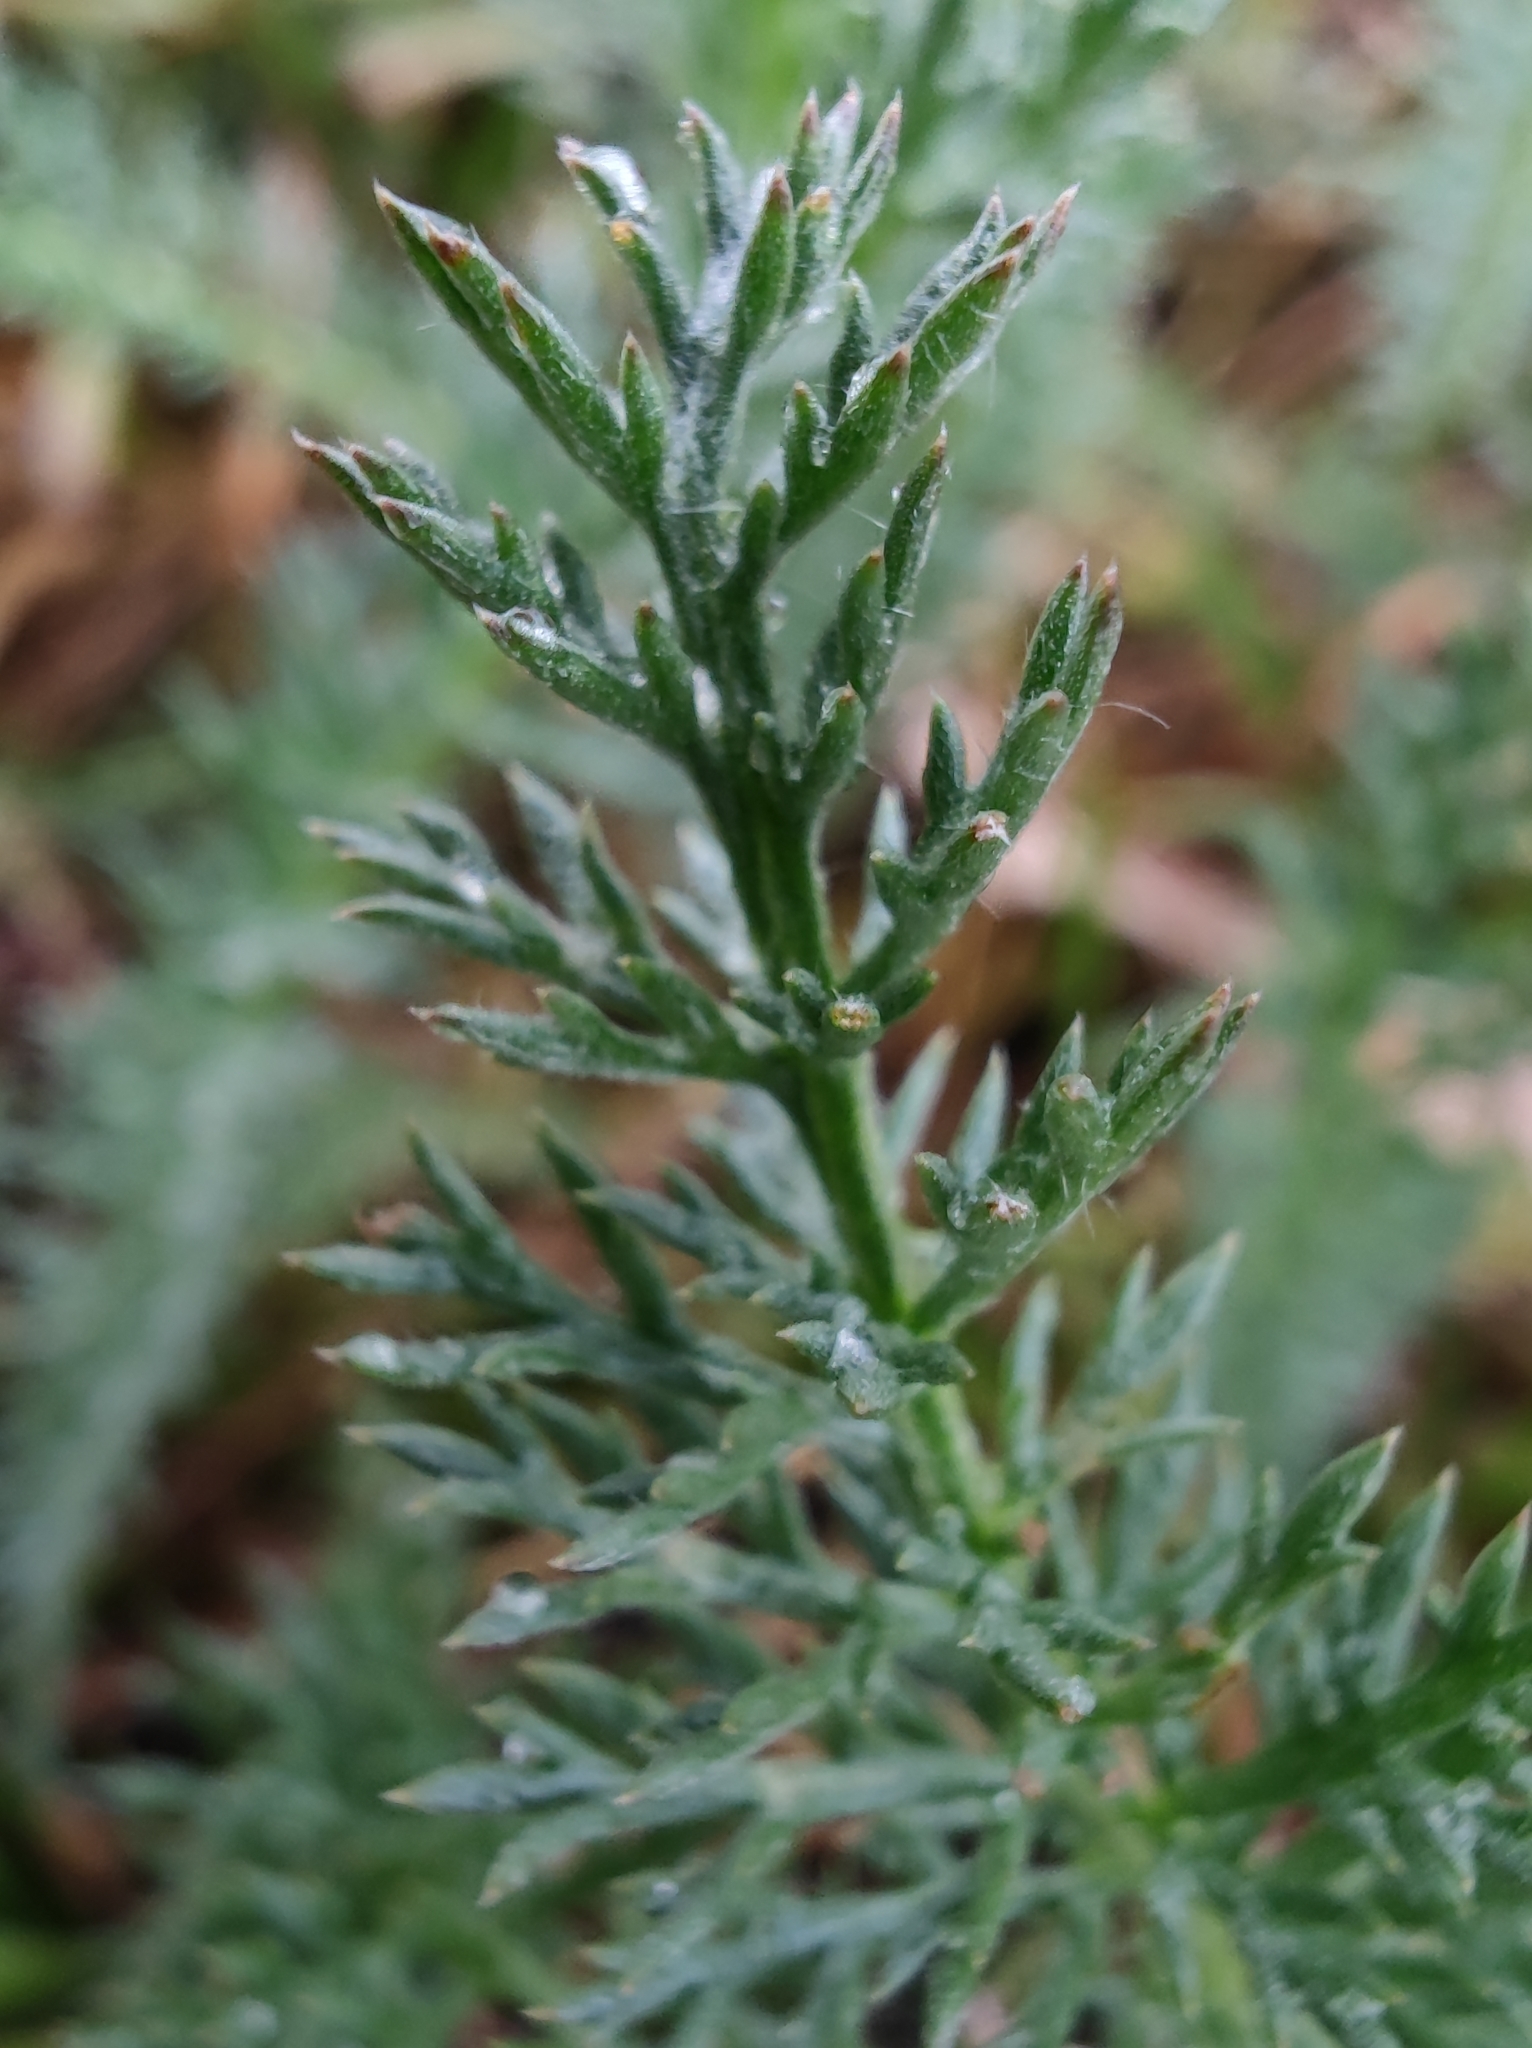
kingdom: Plantae
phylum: Tracheophyta
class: Magnoliopsida
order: Asterales
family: Asteraceae
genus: Achillea
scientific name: Achillea millefolium
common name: Yarrow
